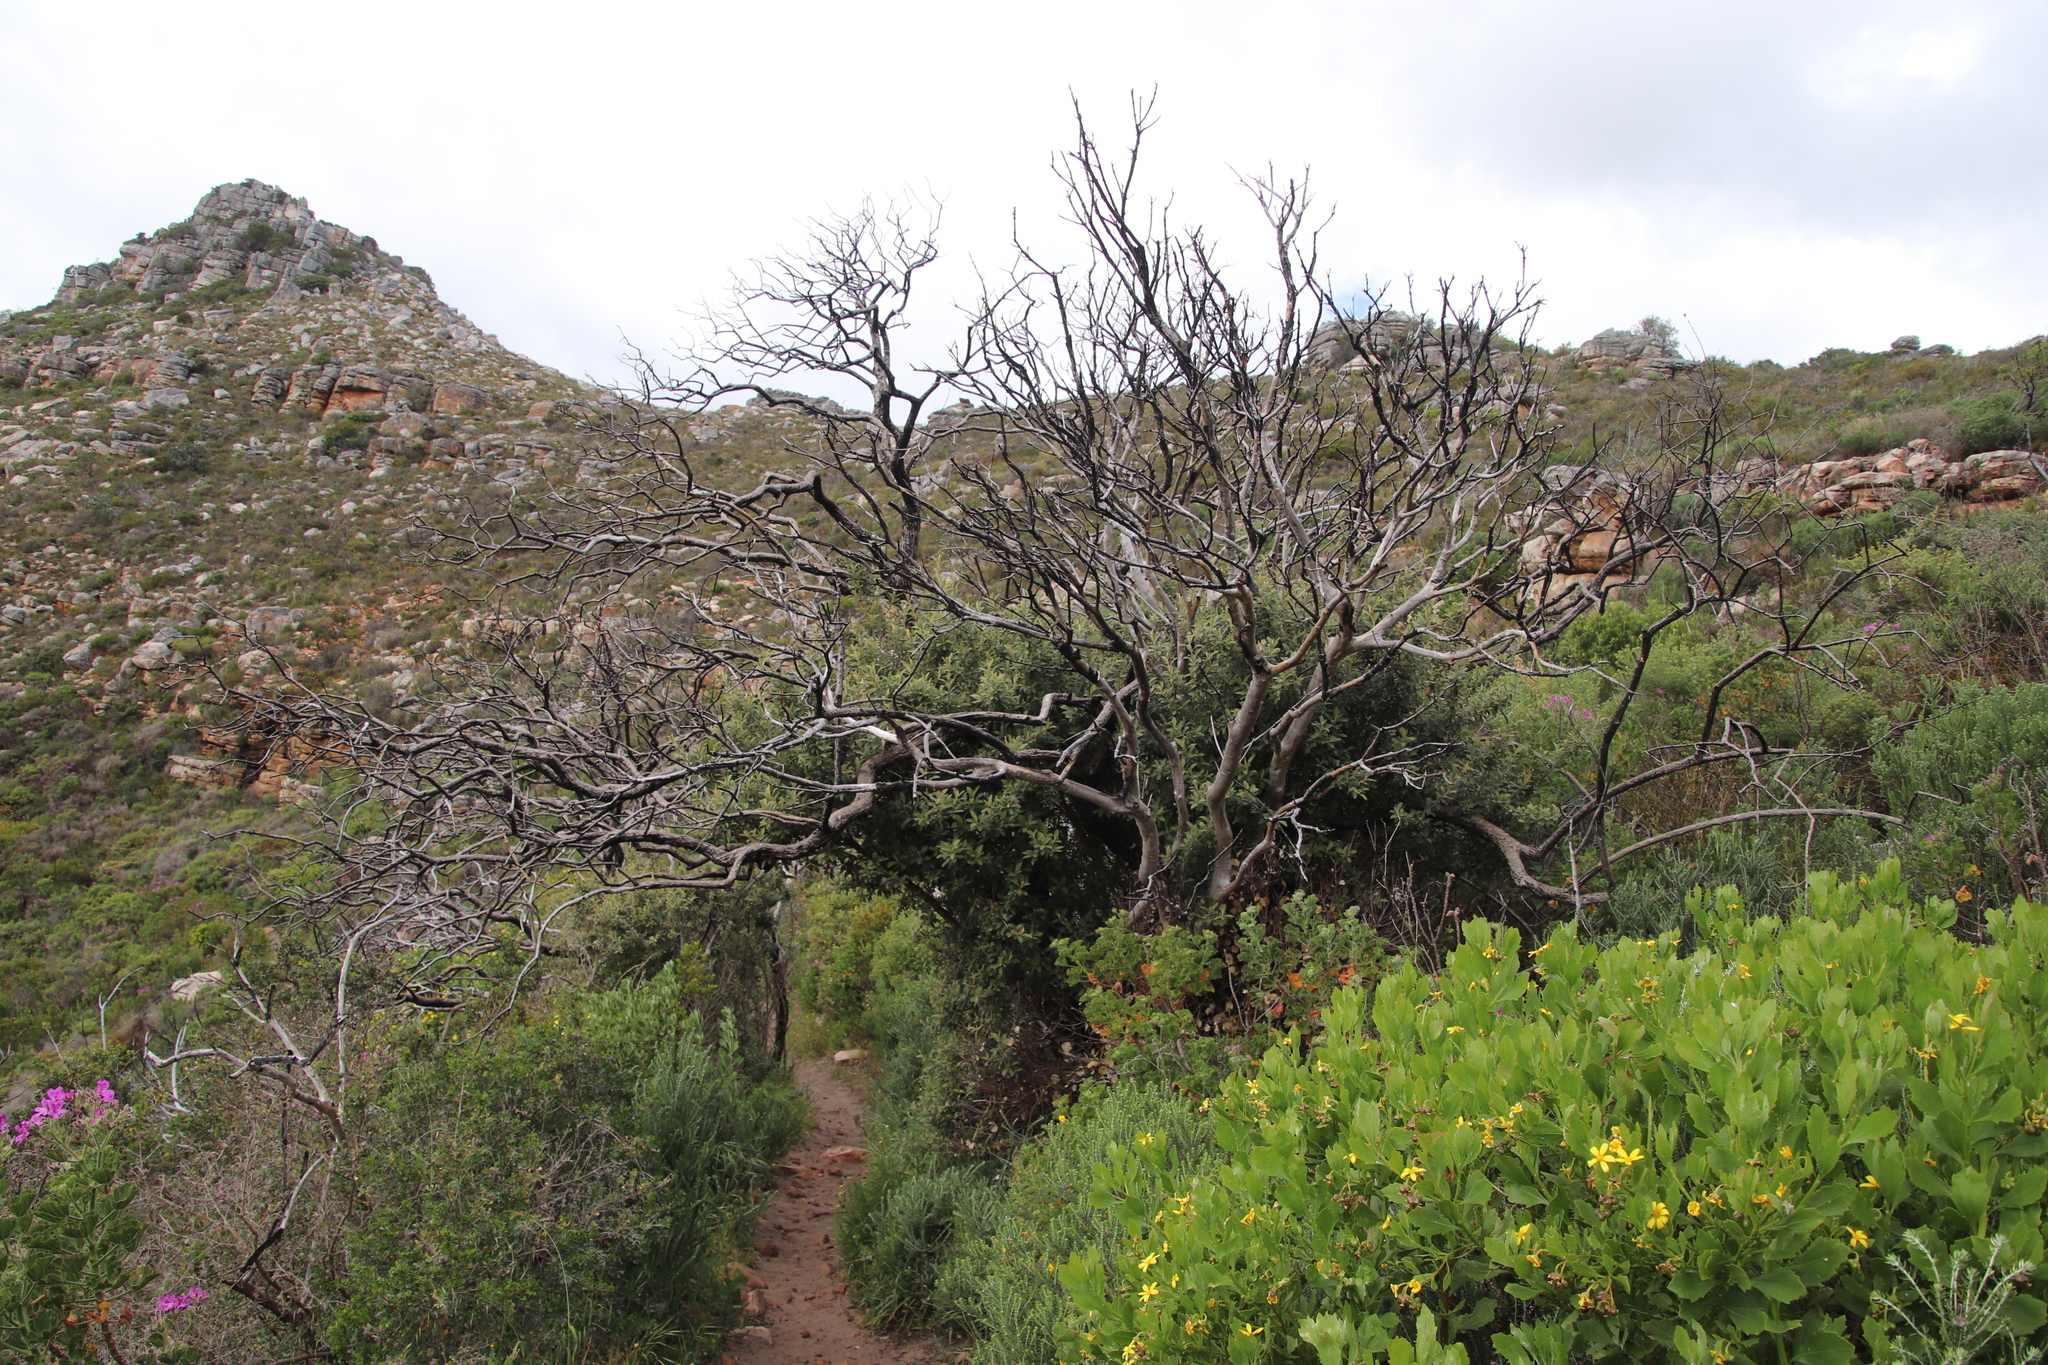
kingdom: Plantae
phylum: Tracheophyta
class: Magnoliopsida
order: Asterales
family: Asteraceae
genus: Tarchonanthus
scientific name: Tarchonanthus littoralis
